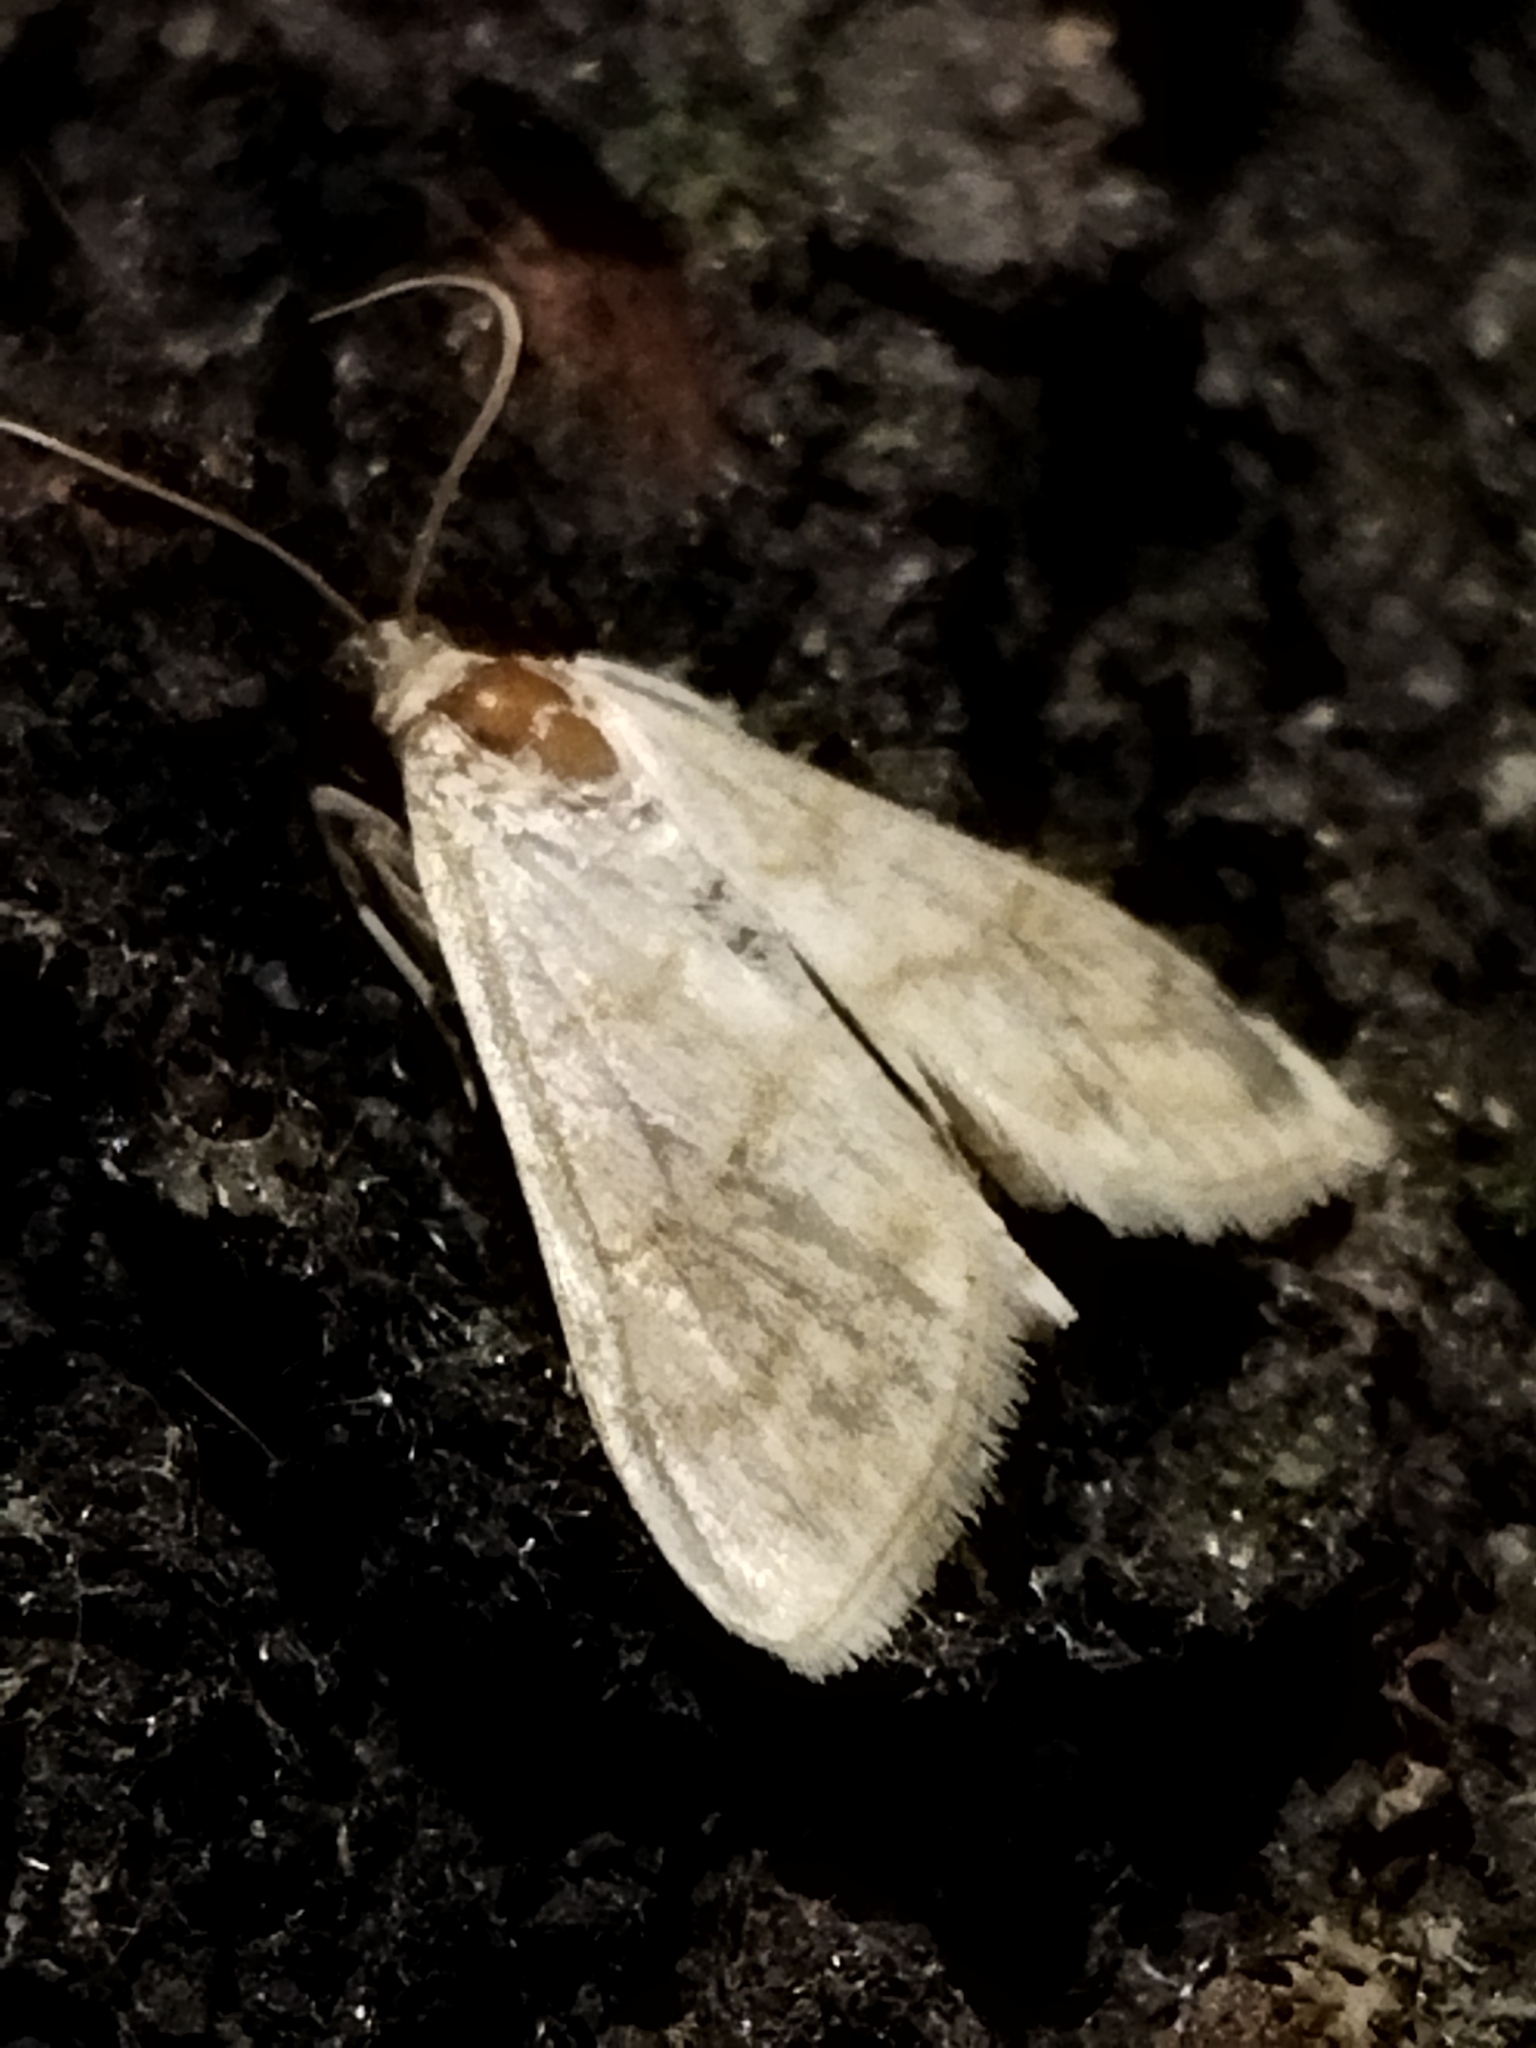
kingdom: Animalia
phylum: Arthropoda
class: Insecta
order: Lepidoptera
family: Crambidae
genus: Paracorsia
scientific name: Paracorsia repandalis
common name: Mullein moth
